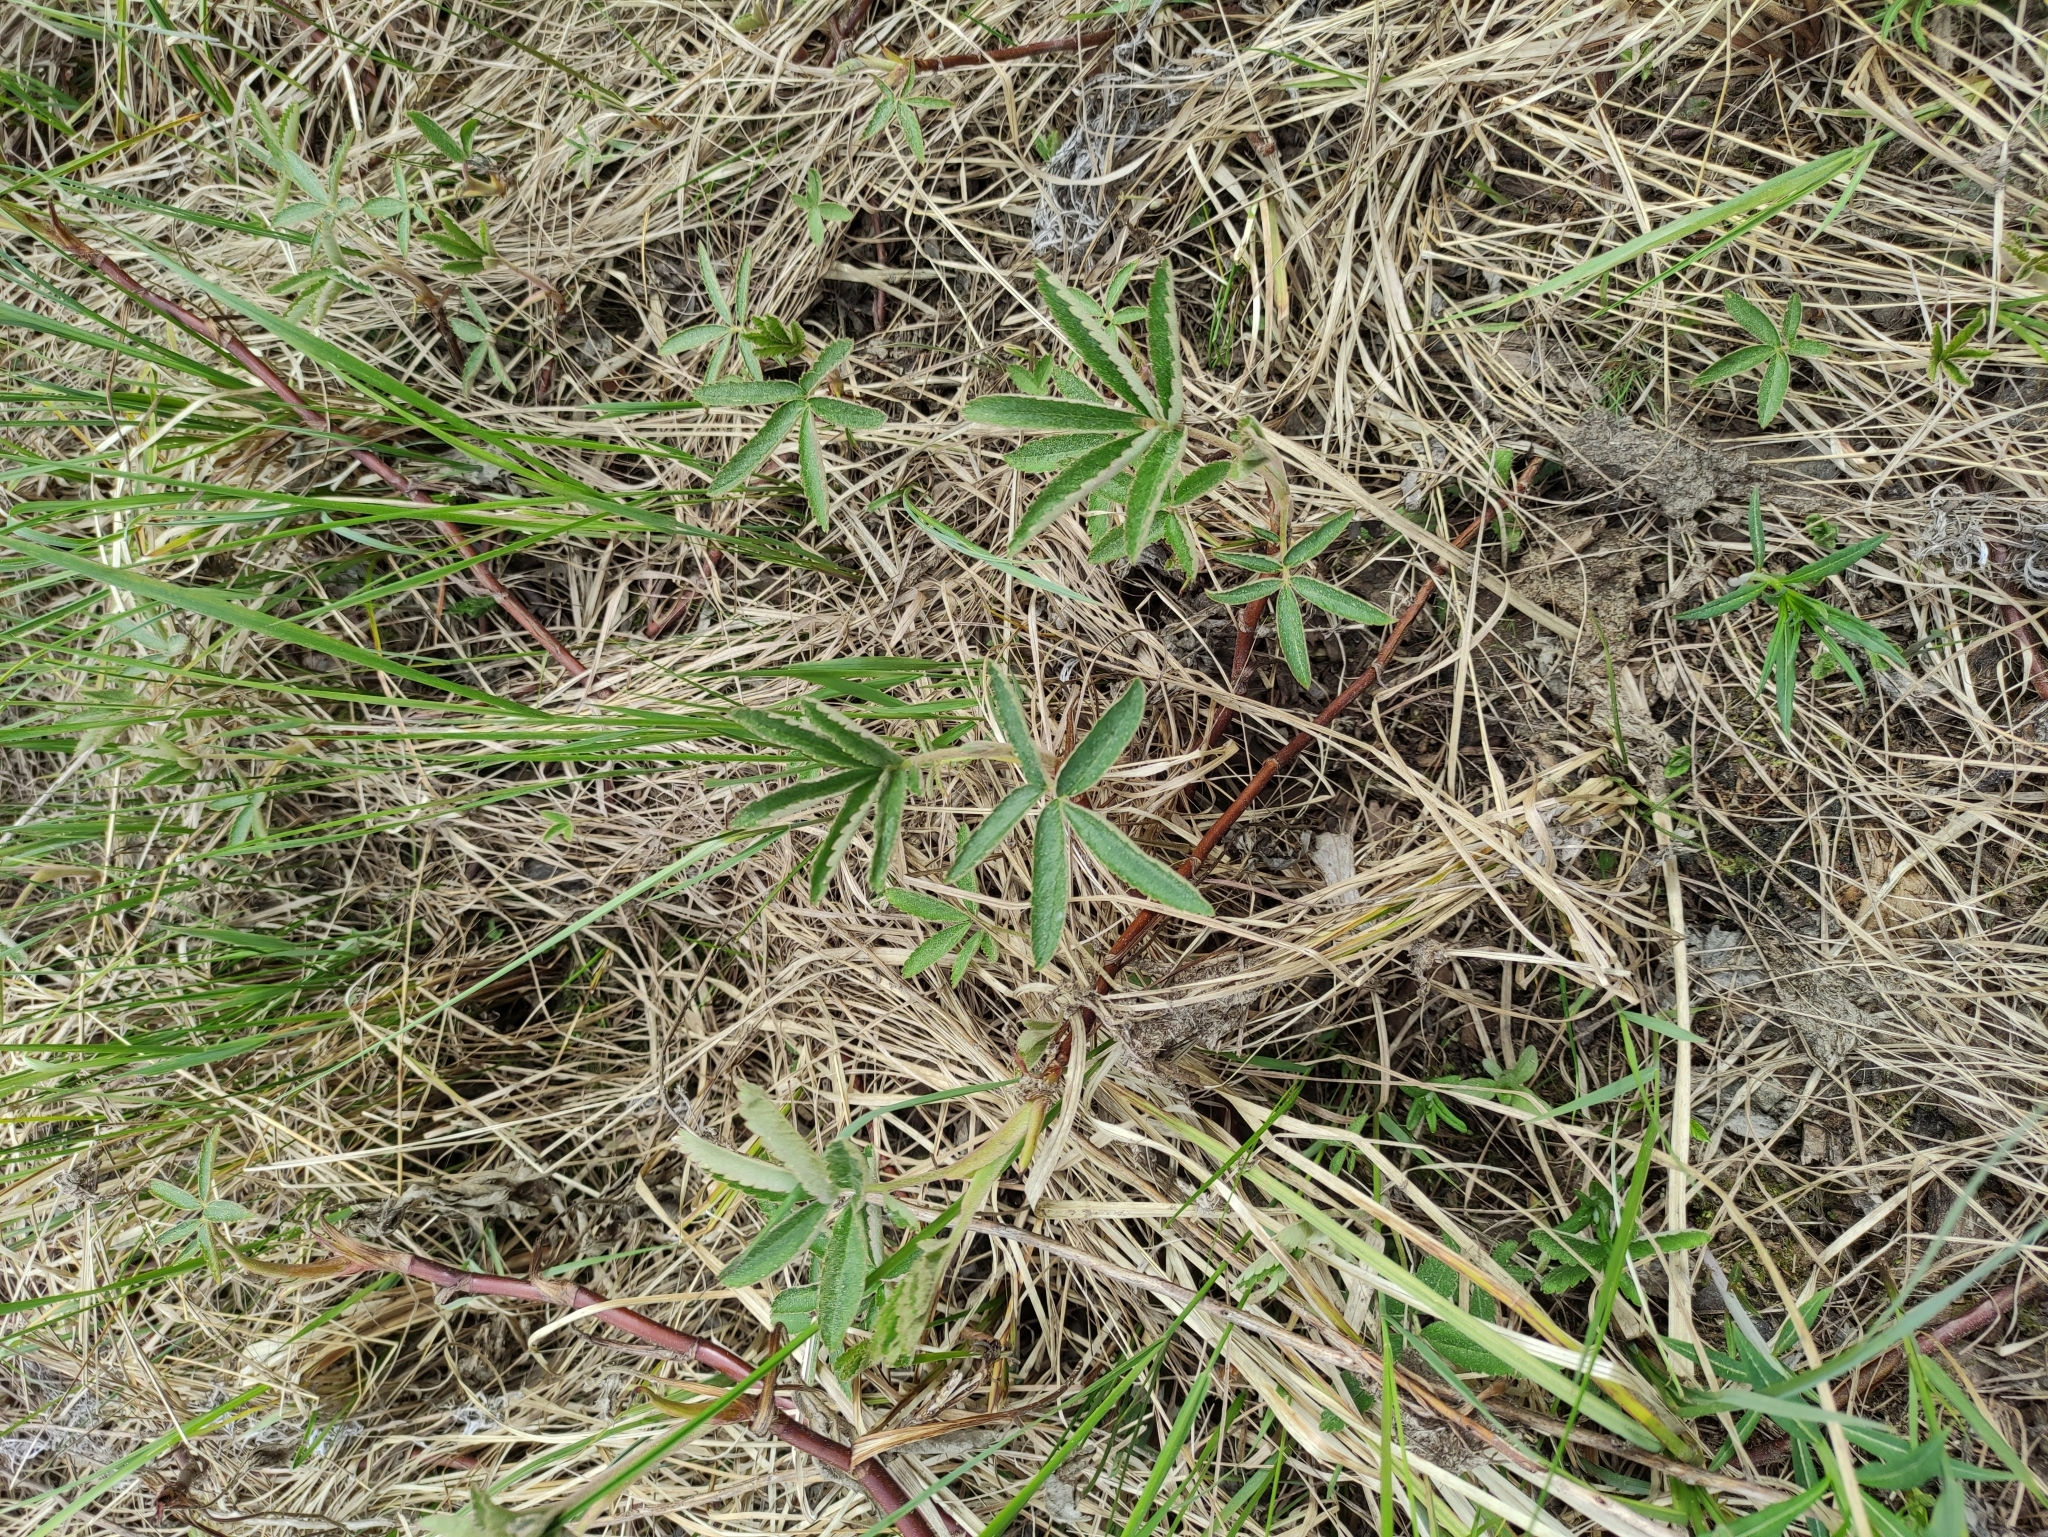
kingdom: Plantae
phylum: Tracheophyta
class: Magnoliopsida
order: Rosales
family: Rosaceae
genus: Comarum
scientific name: Comarum palustre
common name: Marsh cinquefoil
